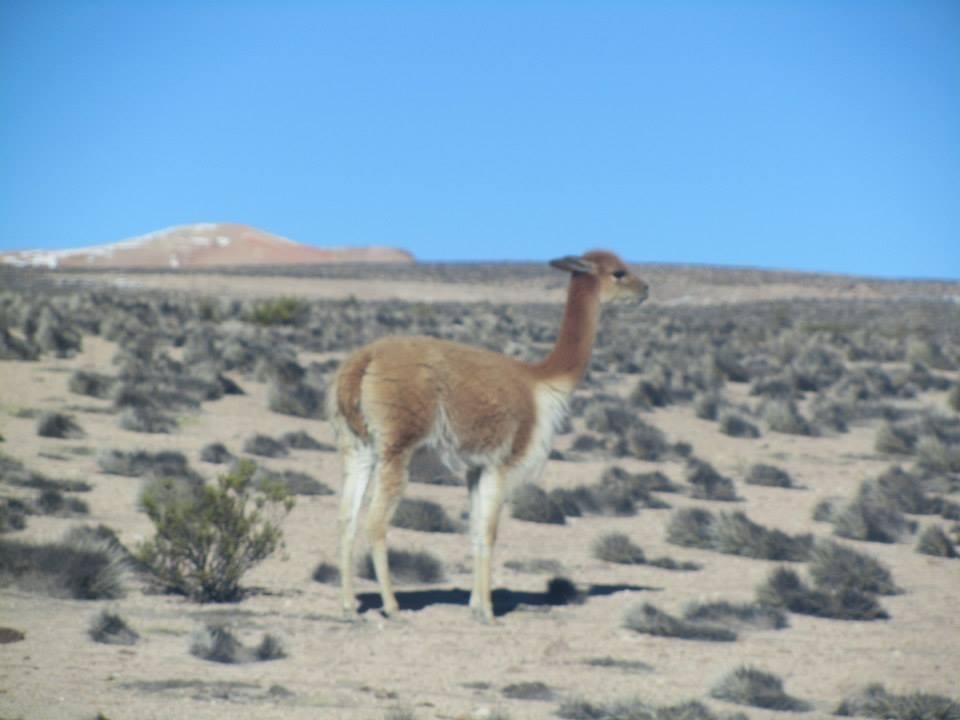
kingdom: Animalia
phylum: Chordata
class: Mammalia
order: Artiodactyla
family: Camelidae
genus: Vicugna
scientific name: Vicugna vicugna
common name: Vicugna
